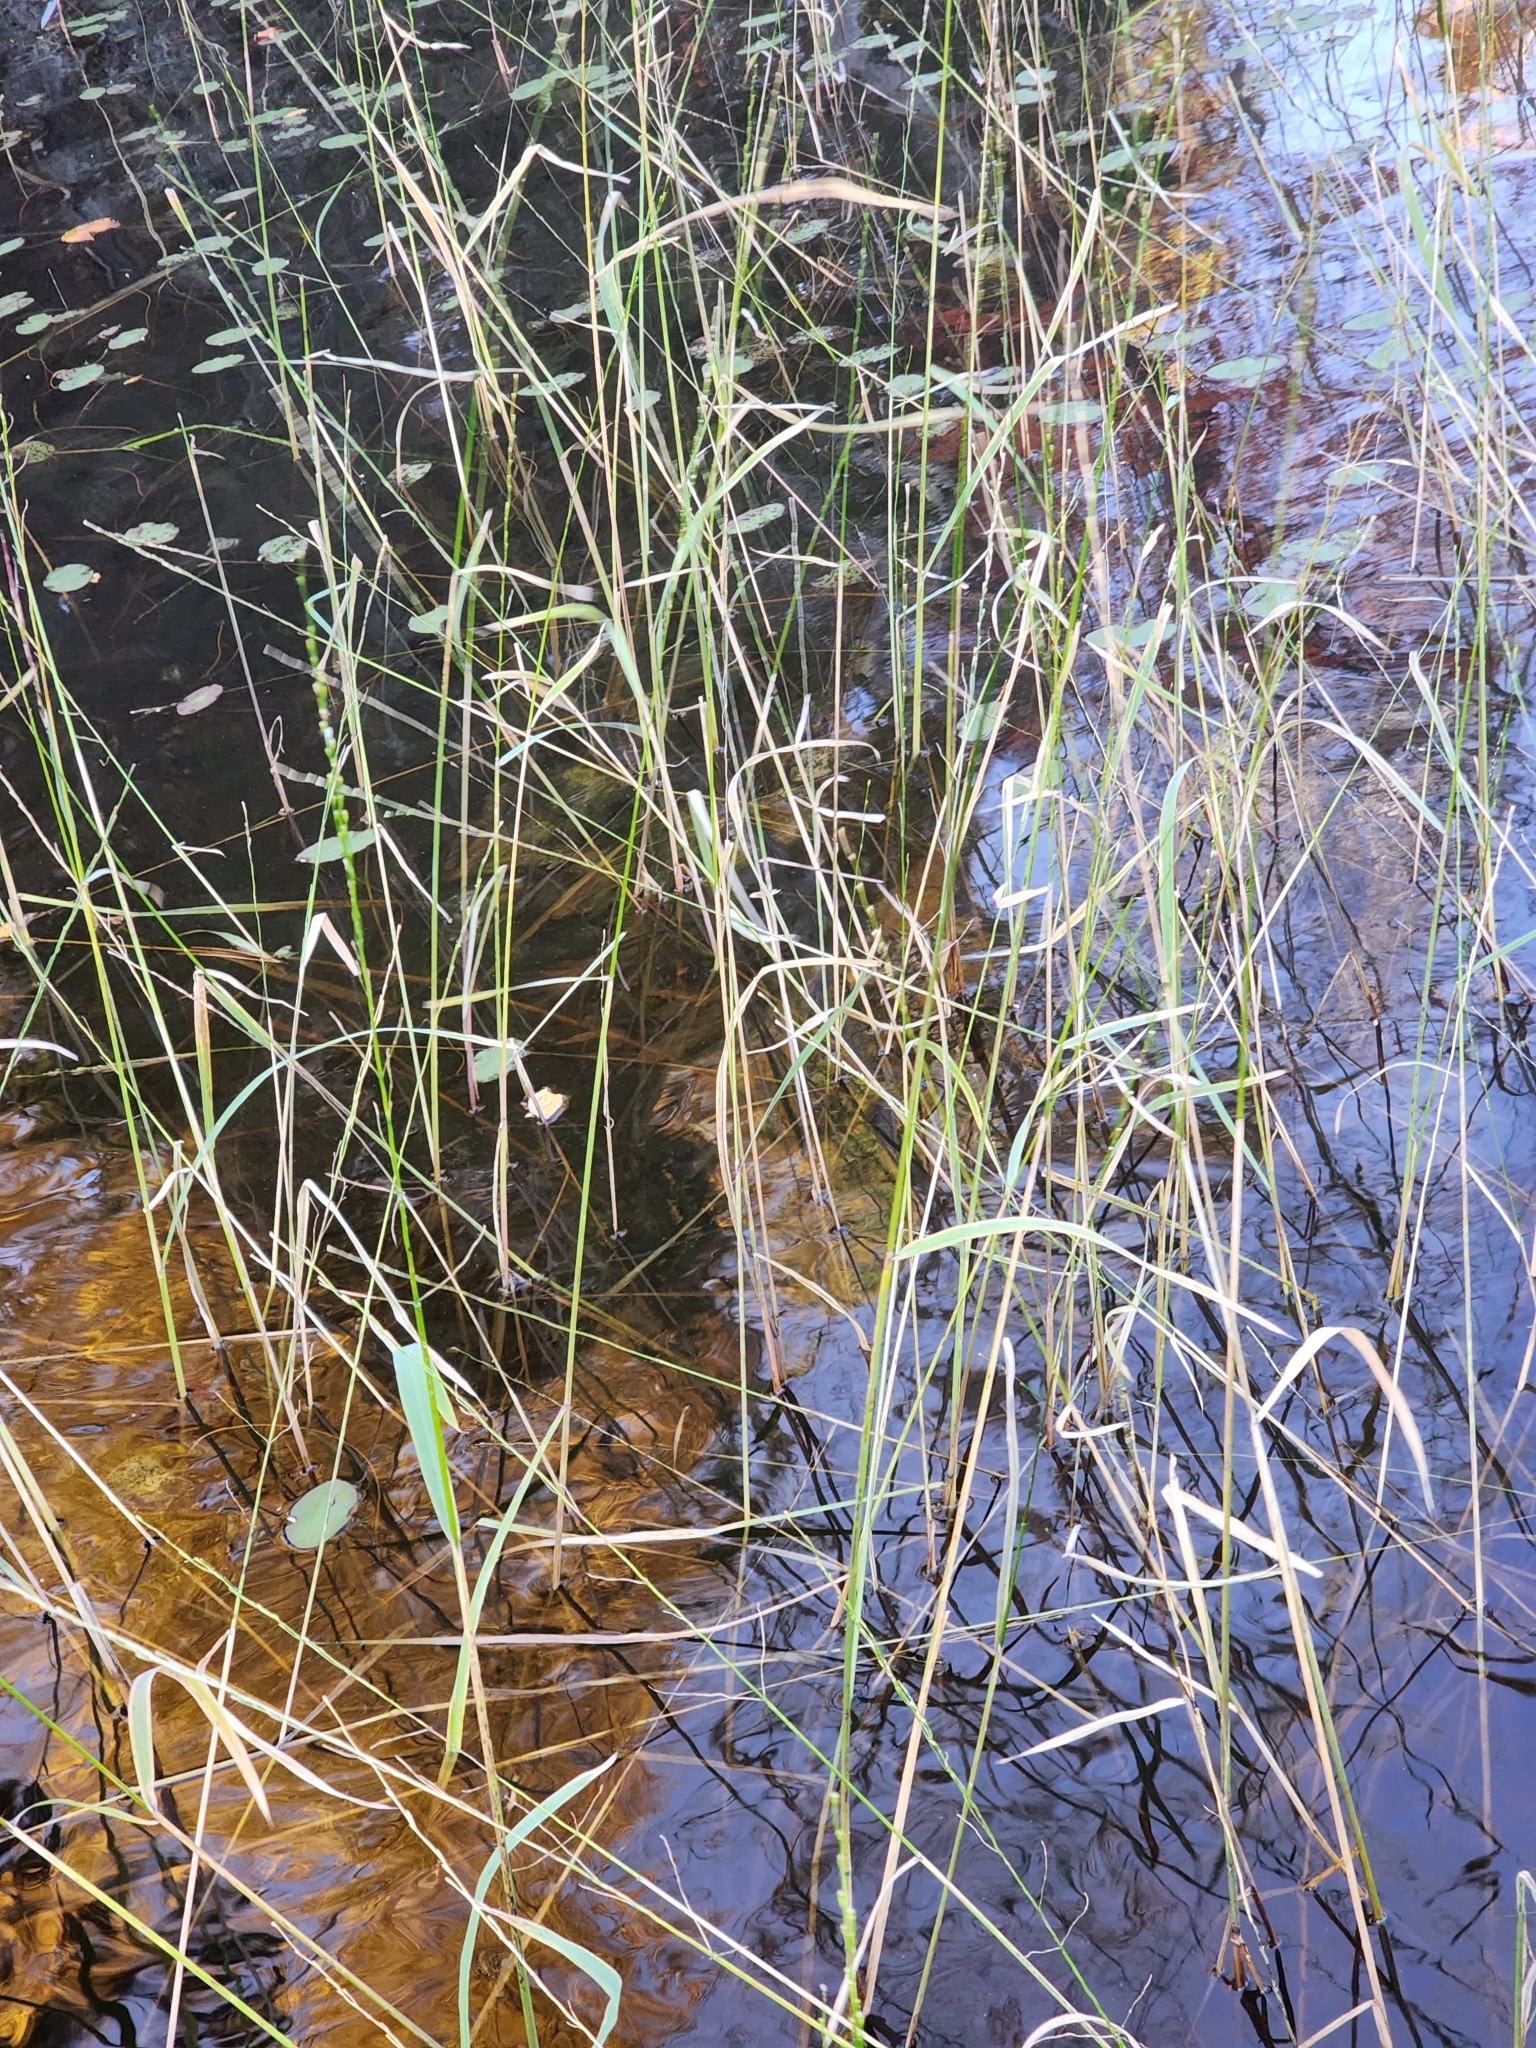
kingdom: Plantae
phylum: Tracheophyta
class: Liliopsida
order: Poales
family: Poaceae
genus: Zizania
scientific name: Zizania palustris
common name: Northern wild rice
